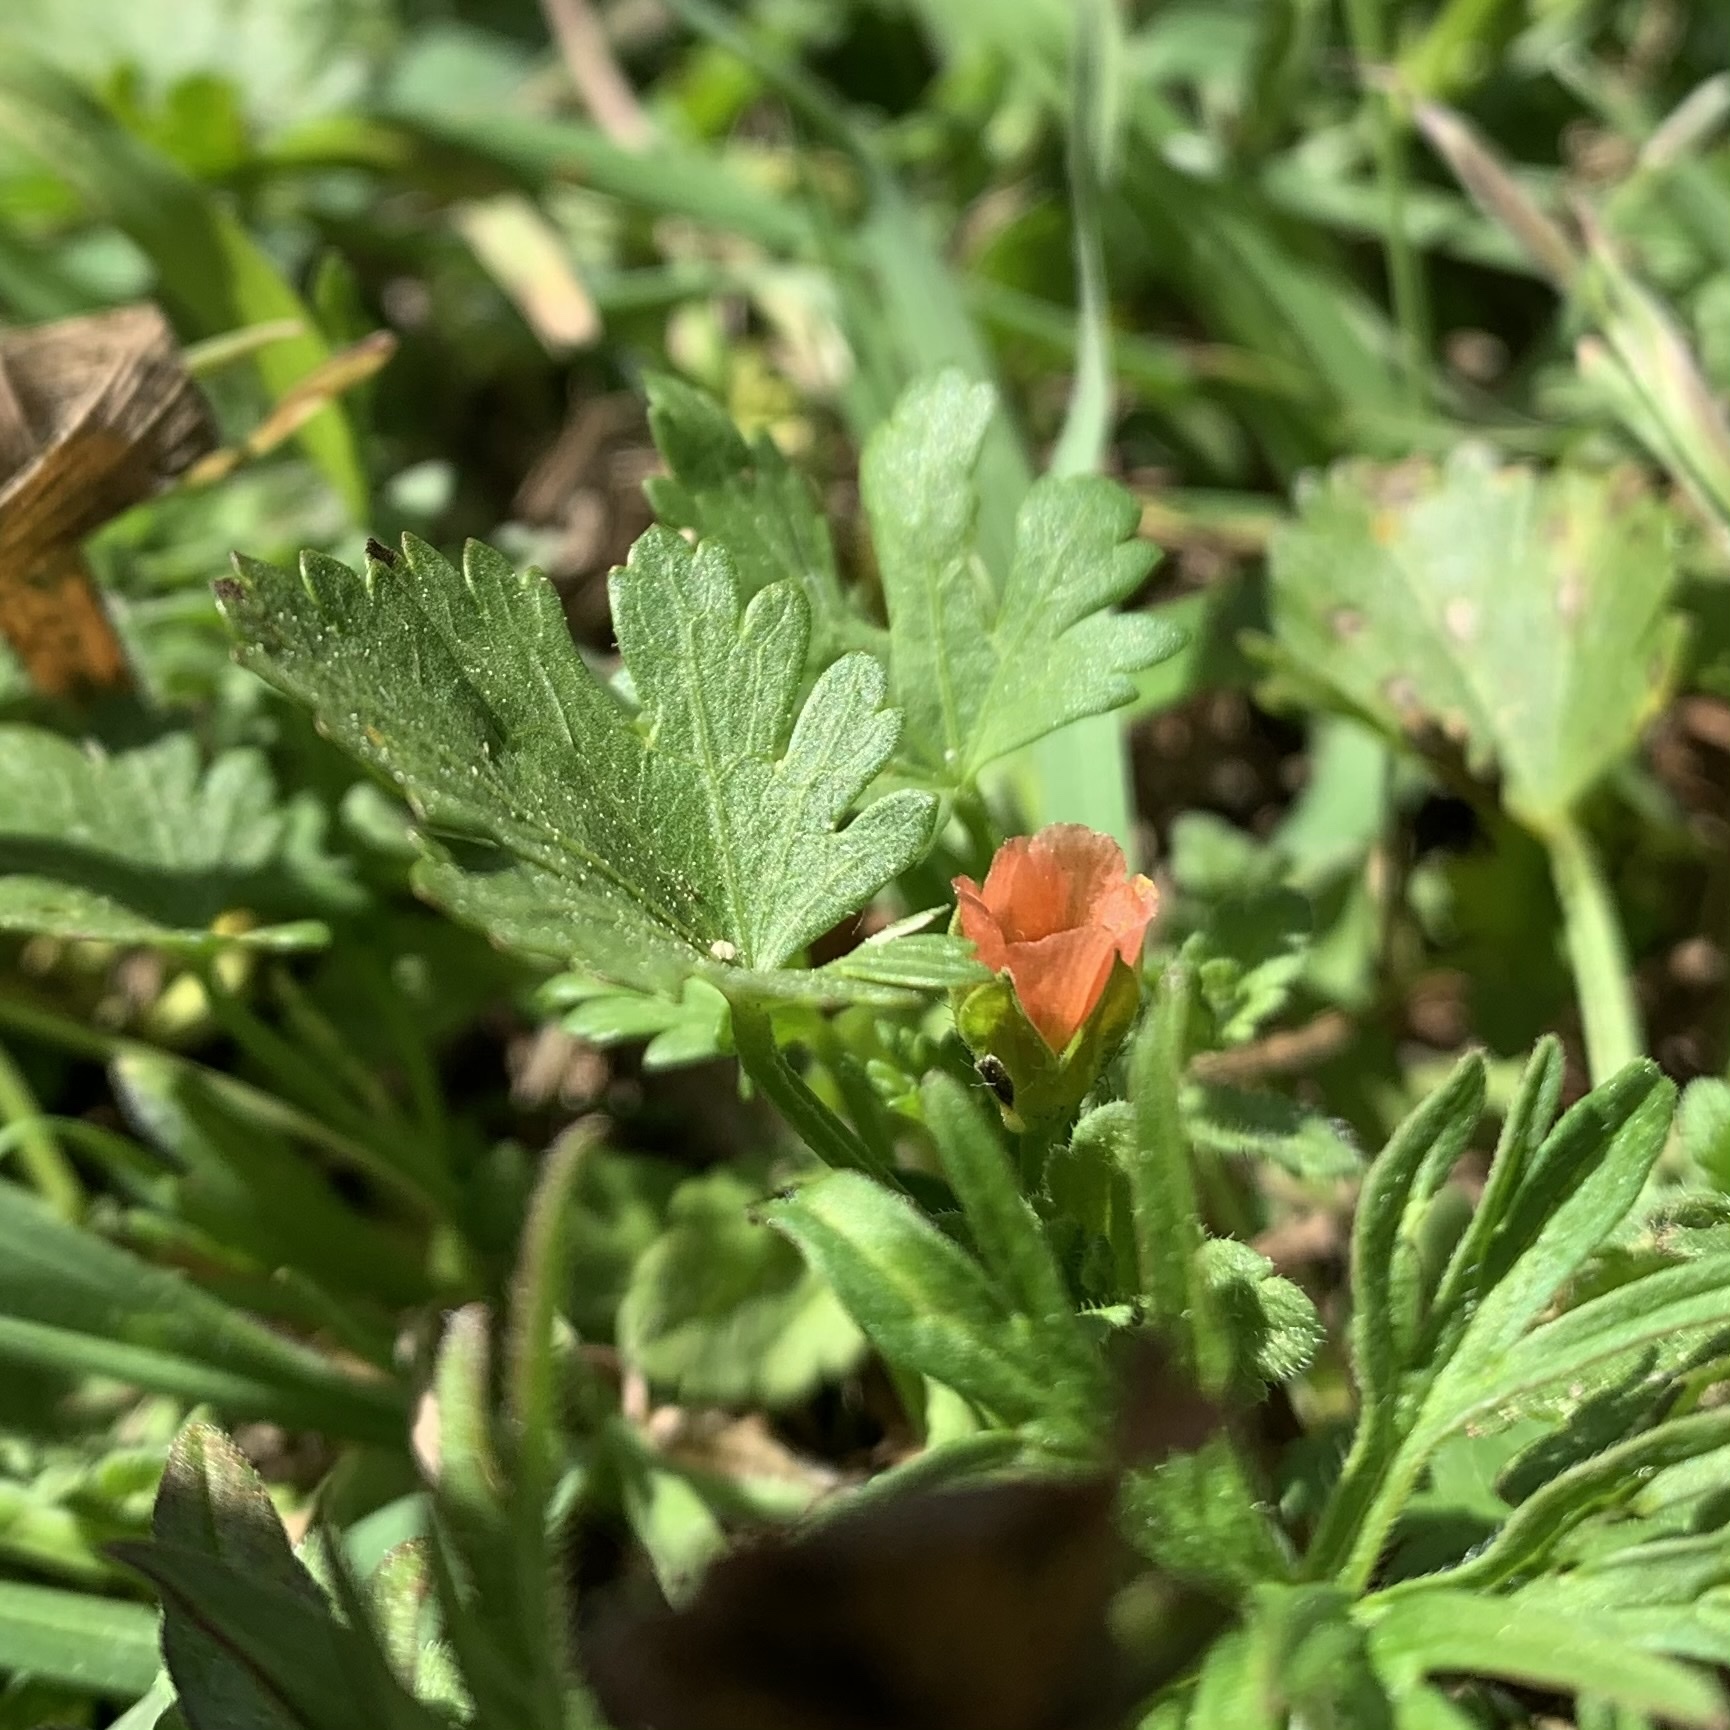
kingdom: Plantae
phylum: Tracheophyta
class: Magnoliopsida
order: Malvales
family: Malvaceae
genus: Modiola
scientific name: Modiola caroliniana
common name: Carolina bristlemallow
